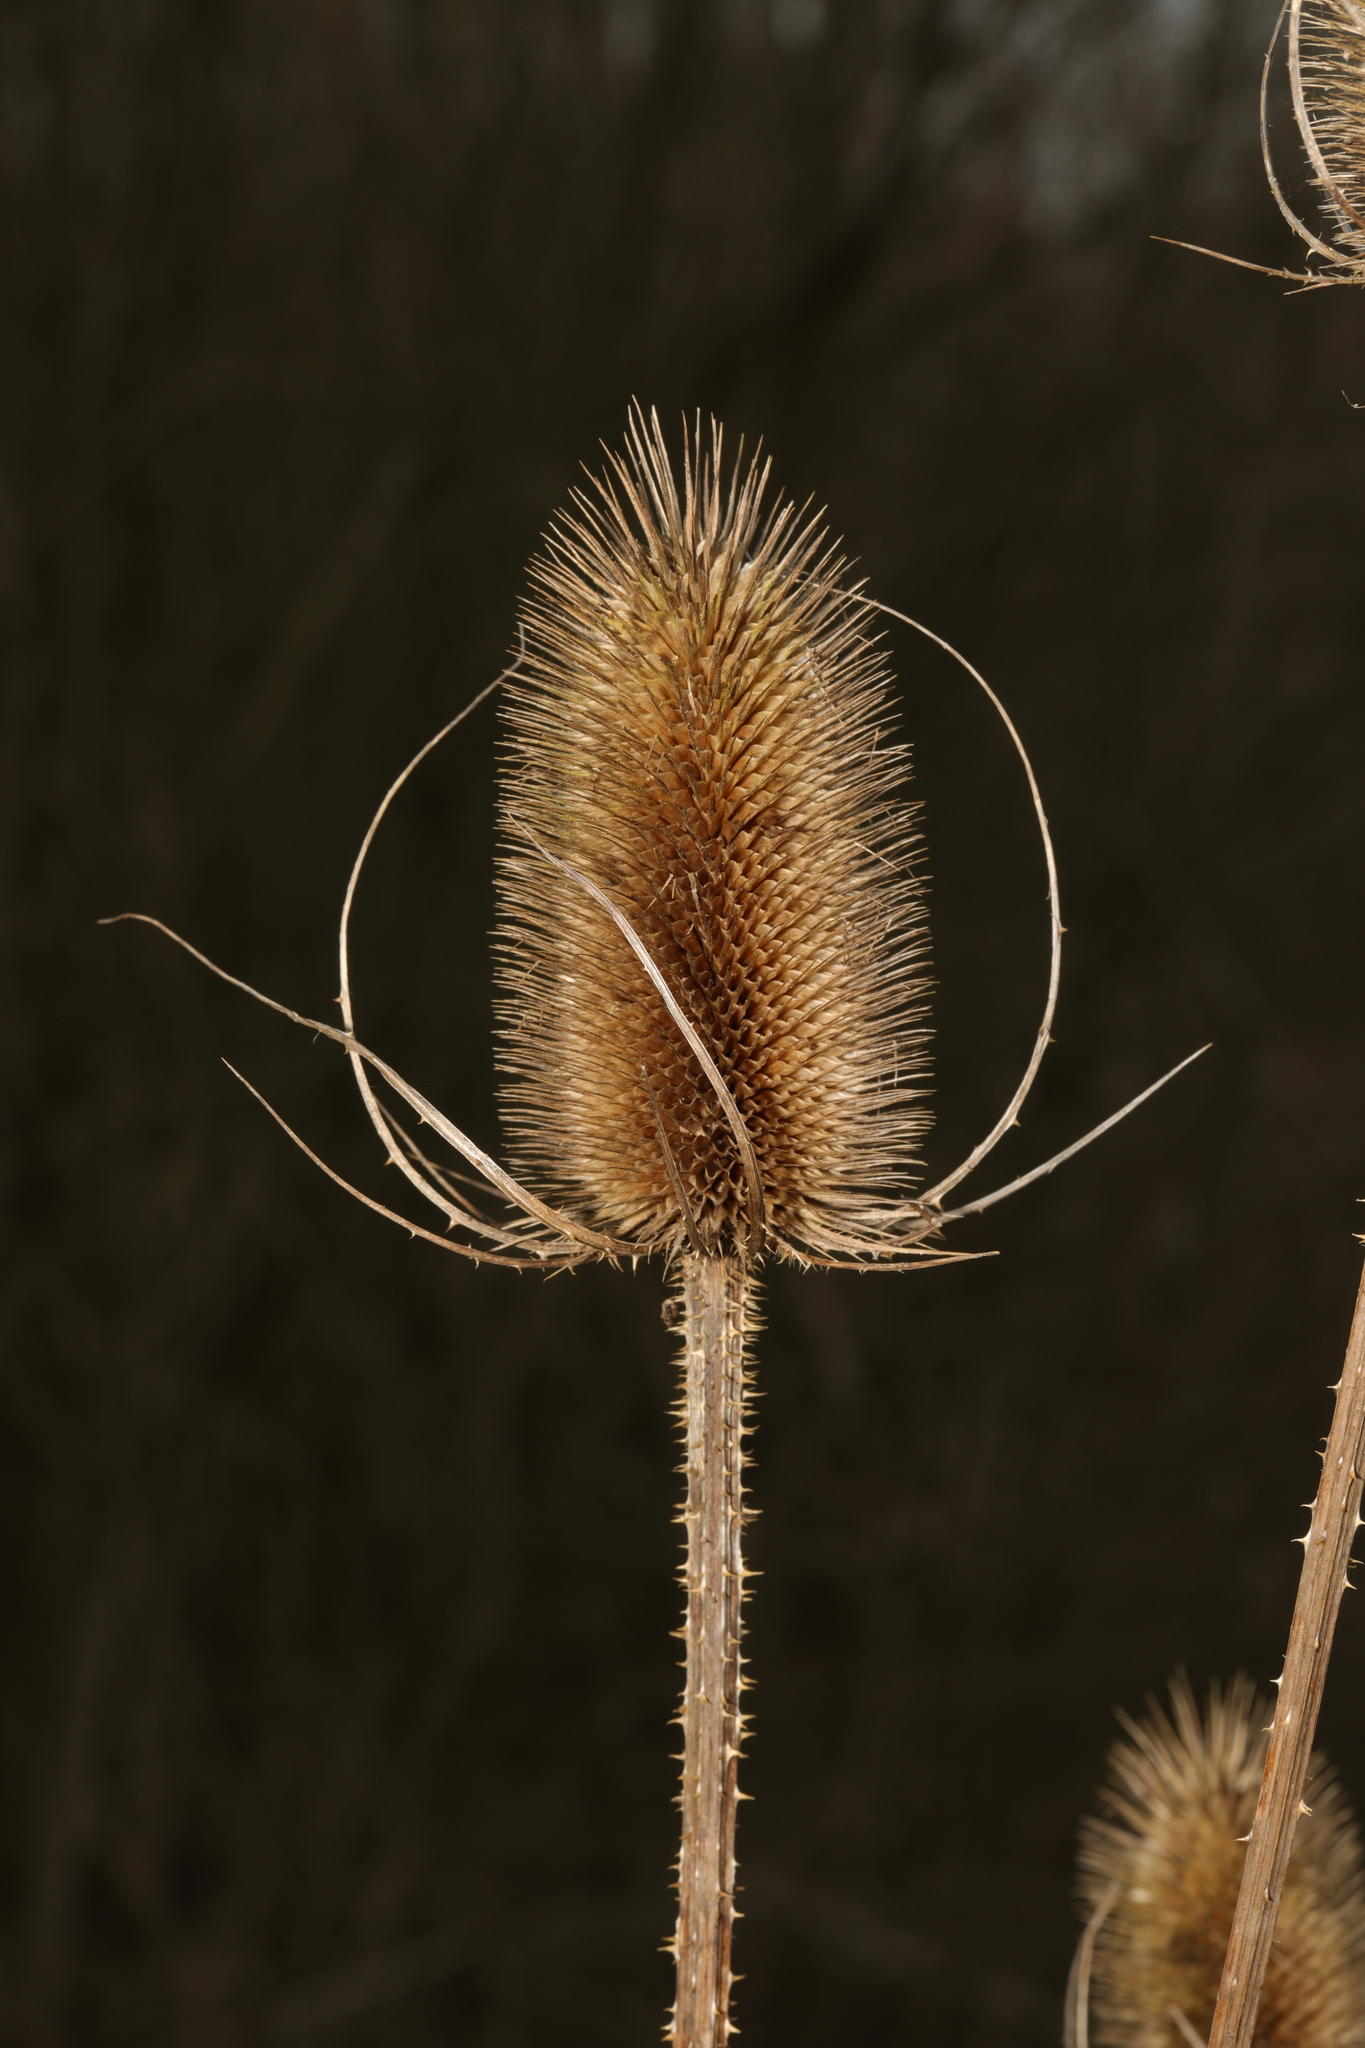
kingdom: Plantae
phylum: Tracheophyta
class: Magnoliopsida
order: Dipsacales
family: Caprifoliaceae
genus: Dipsacus
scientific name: Dipsacus fullonum
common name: Teasel
